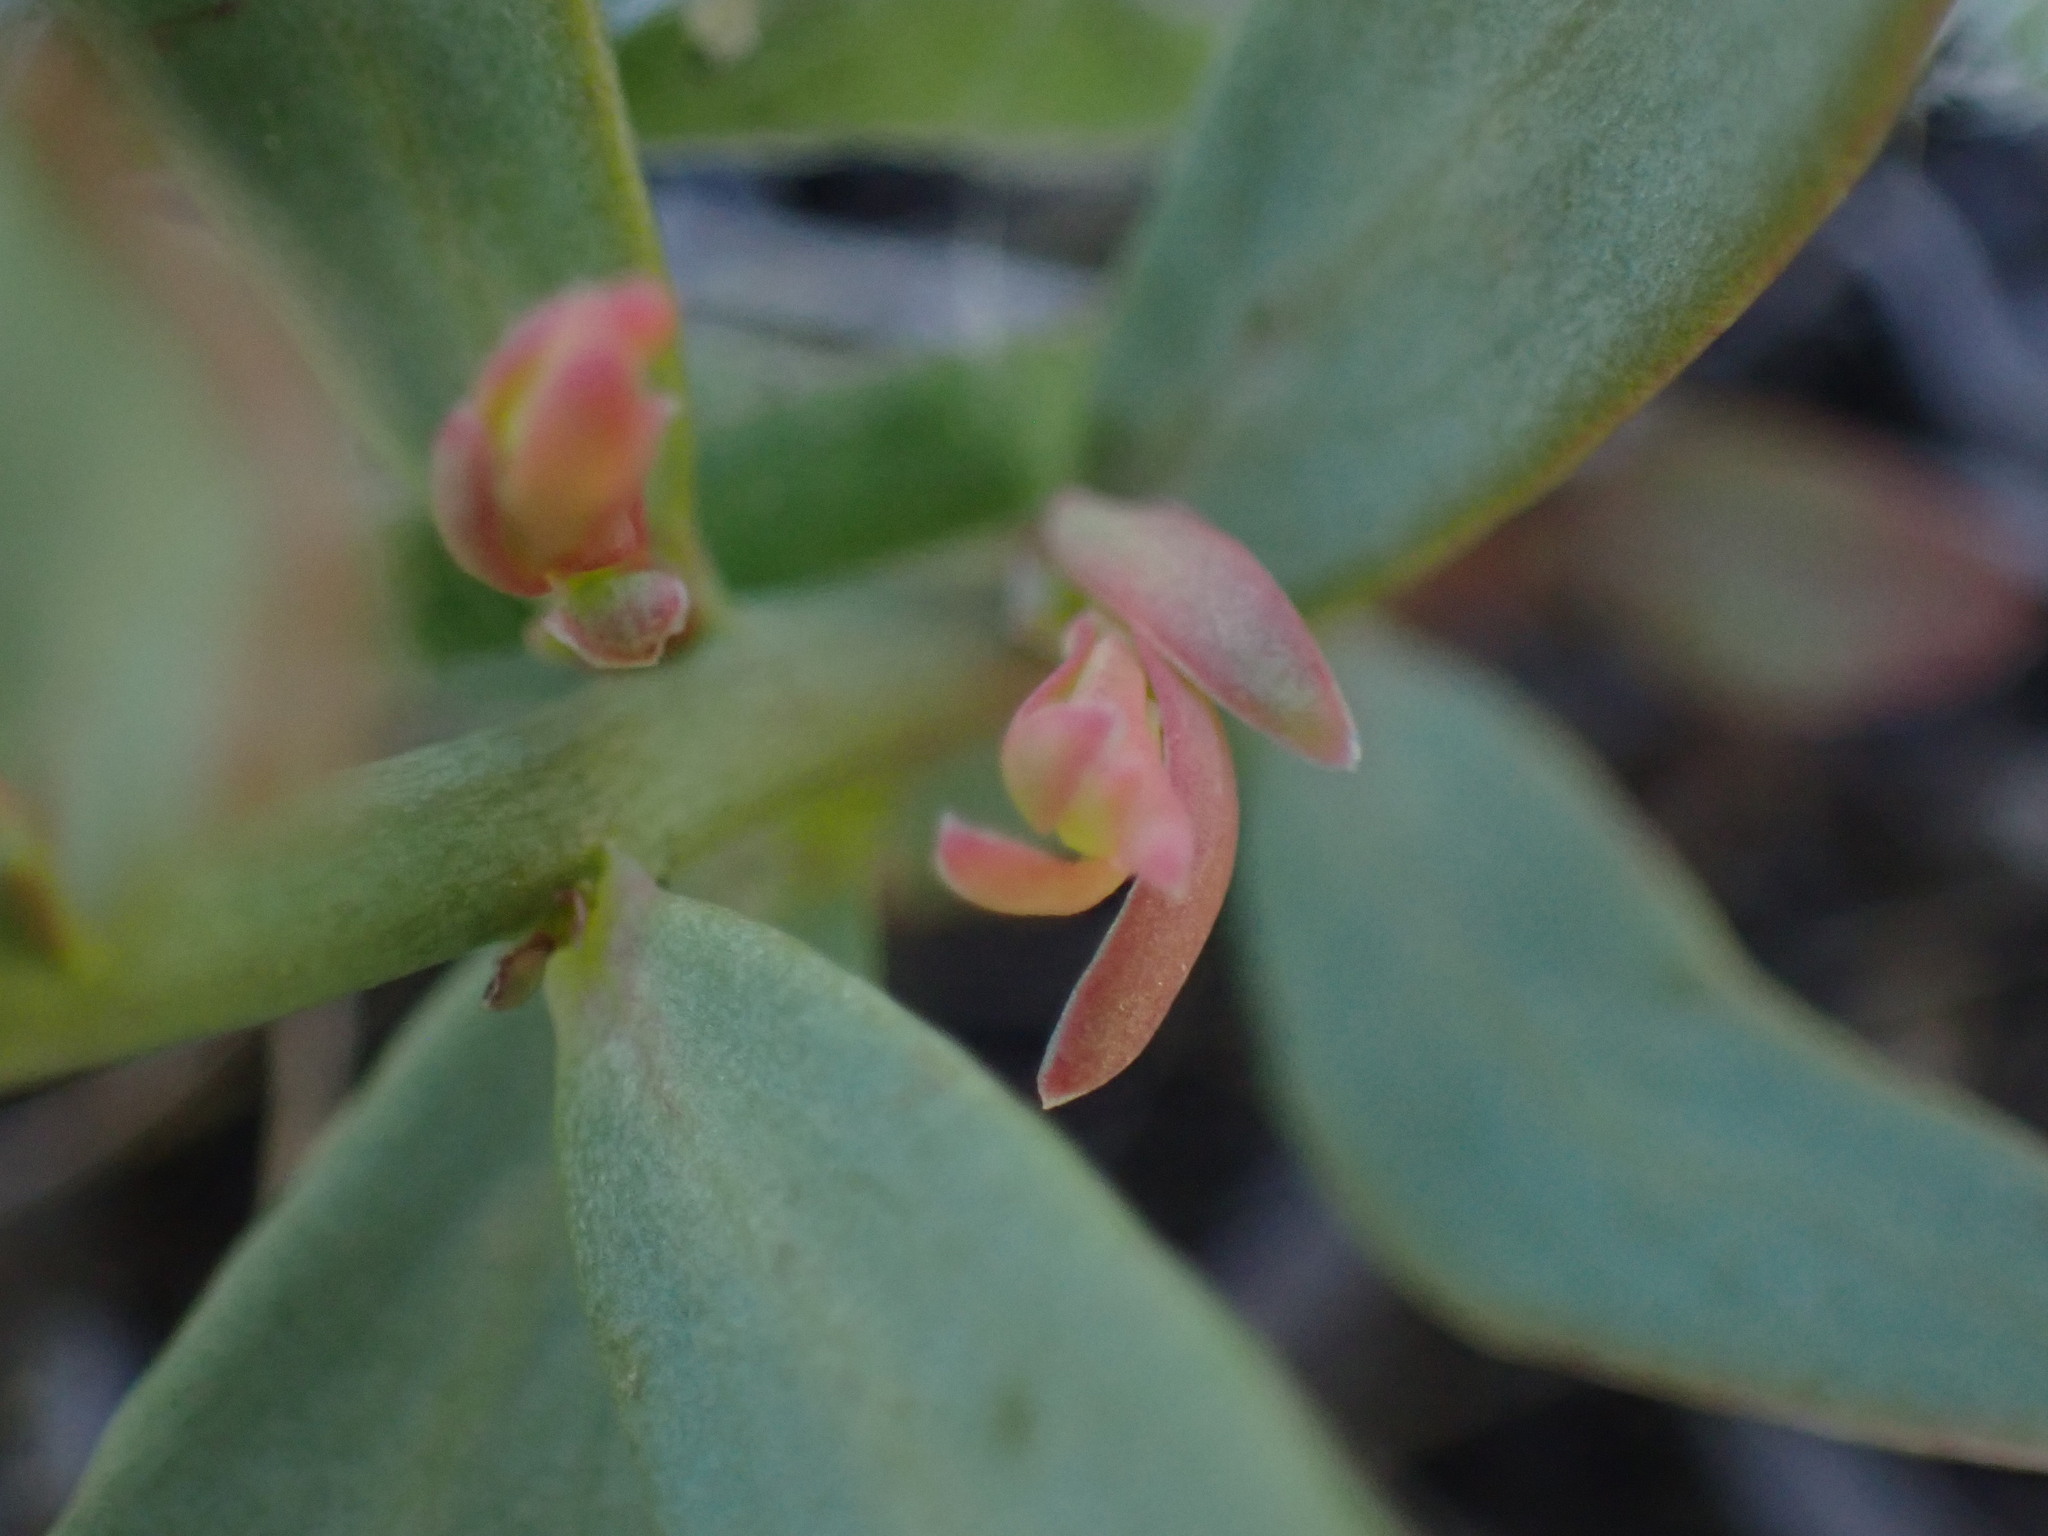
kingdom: Plantae
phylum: Tracheophyta
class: Magnoliopsida
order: Santalales
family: Comandraceae
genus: Comandra
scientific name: Comandra umbellata
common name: Bastard toadflax
